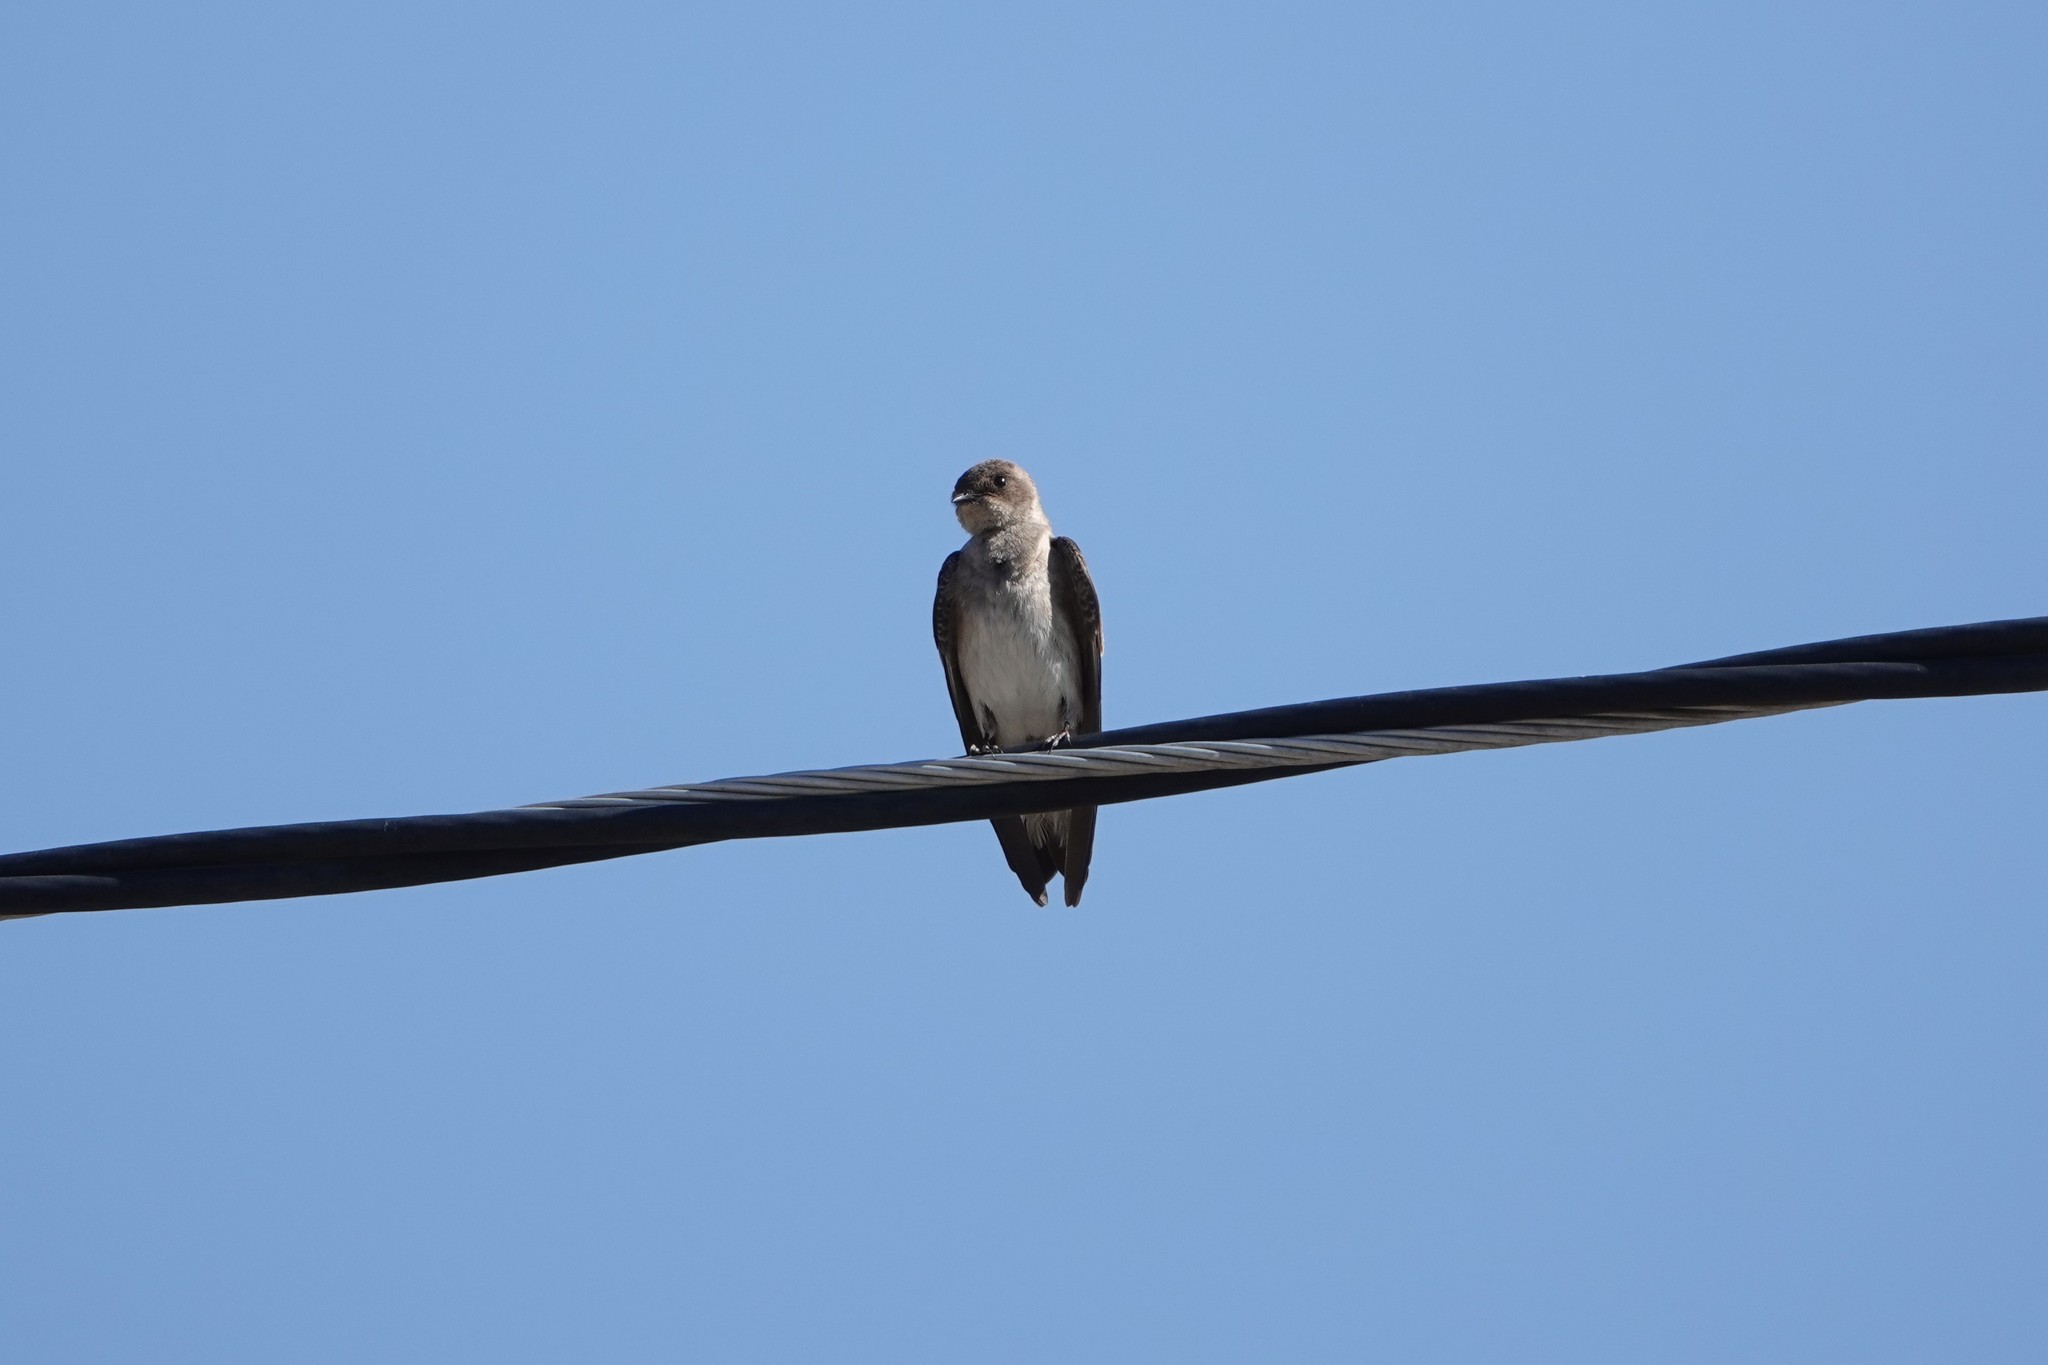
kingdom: Animalia
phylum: Chordata
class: Aves
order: Passeriformes
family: Hirundinidae
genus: Stelgidopteryx
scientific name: Stelgidopteryx serripennis
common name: Northern rough-winged swallow
